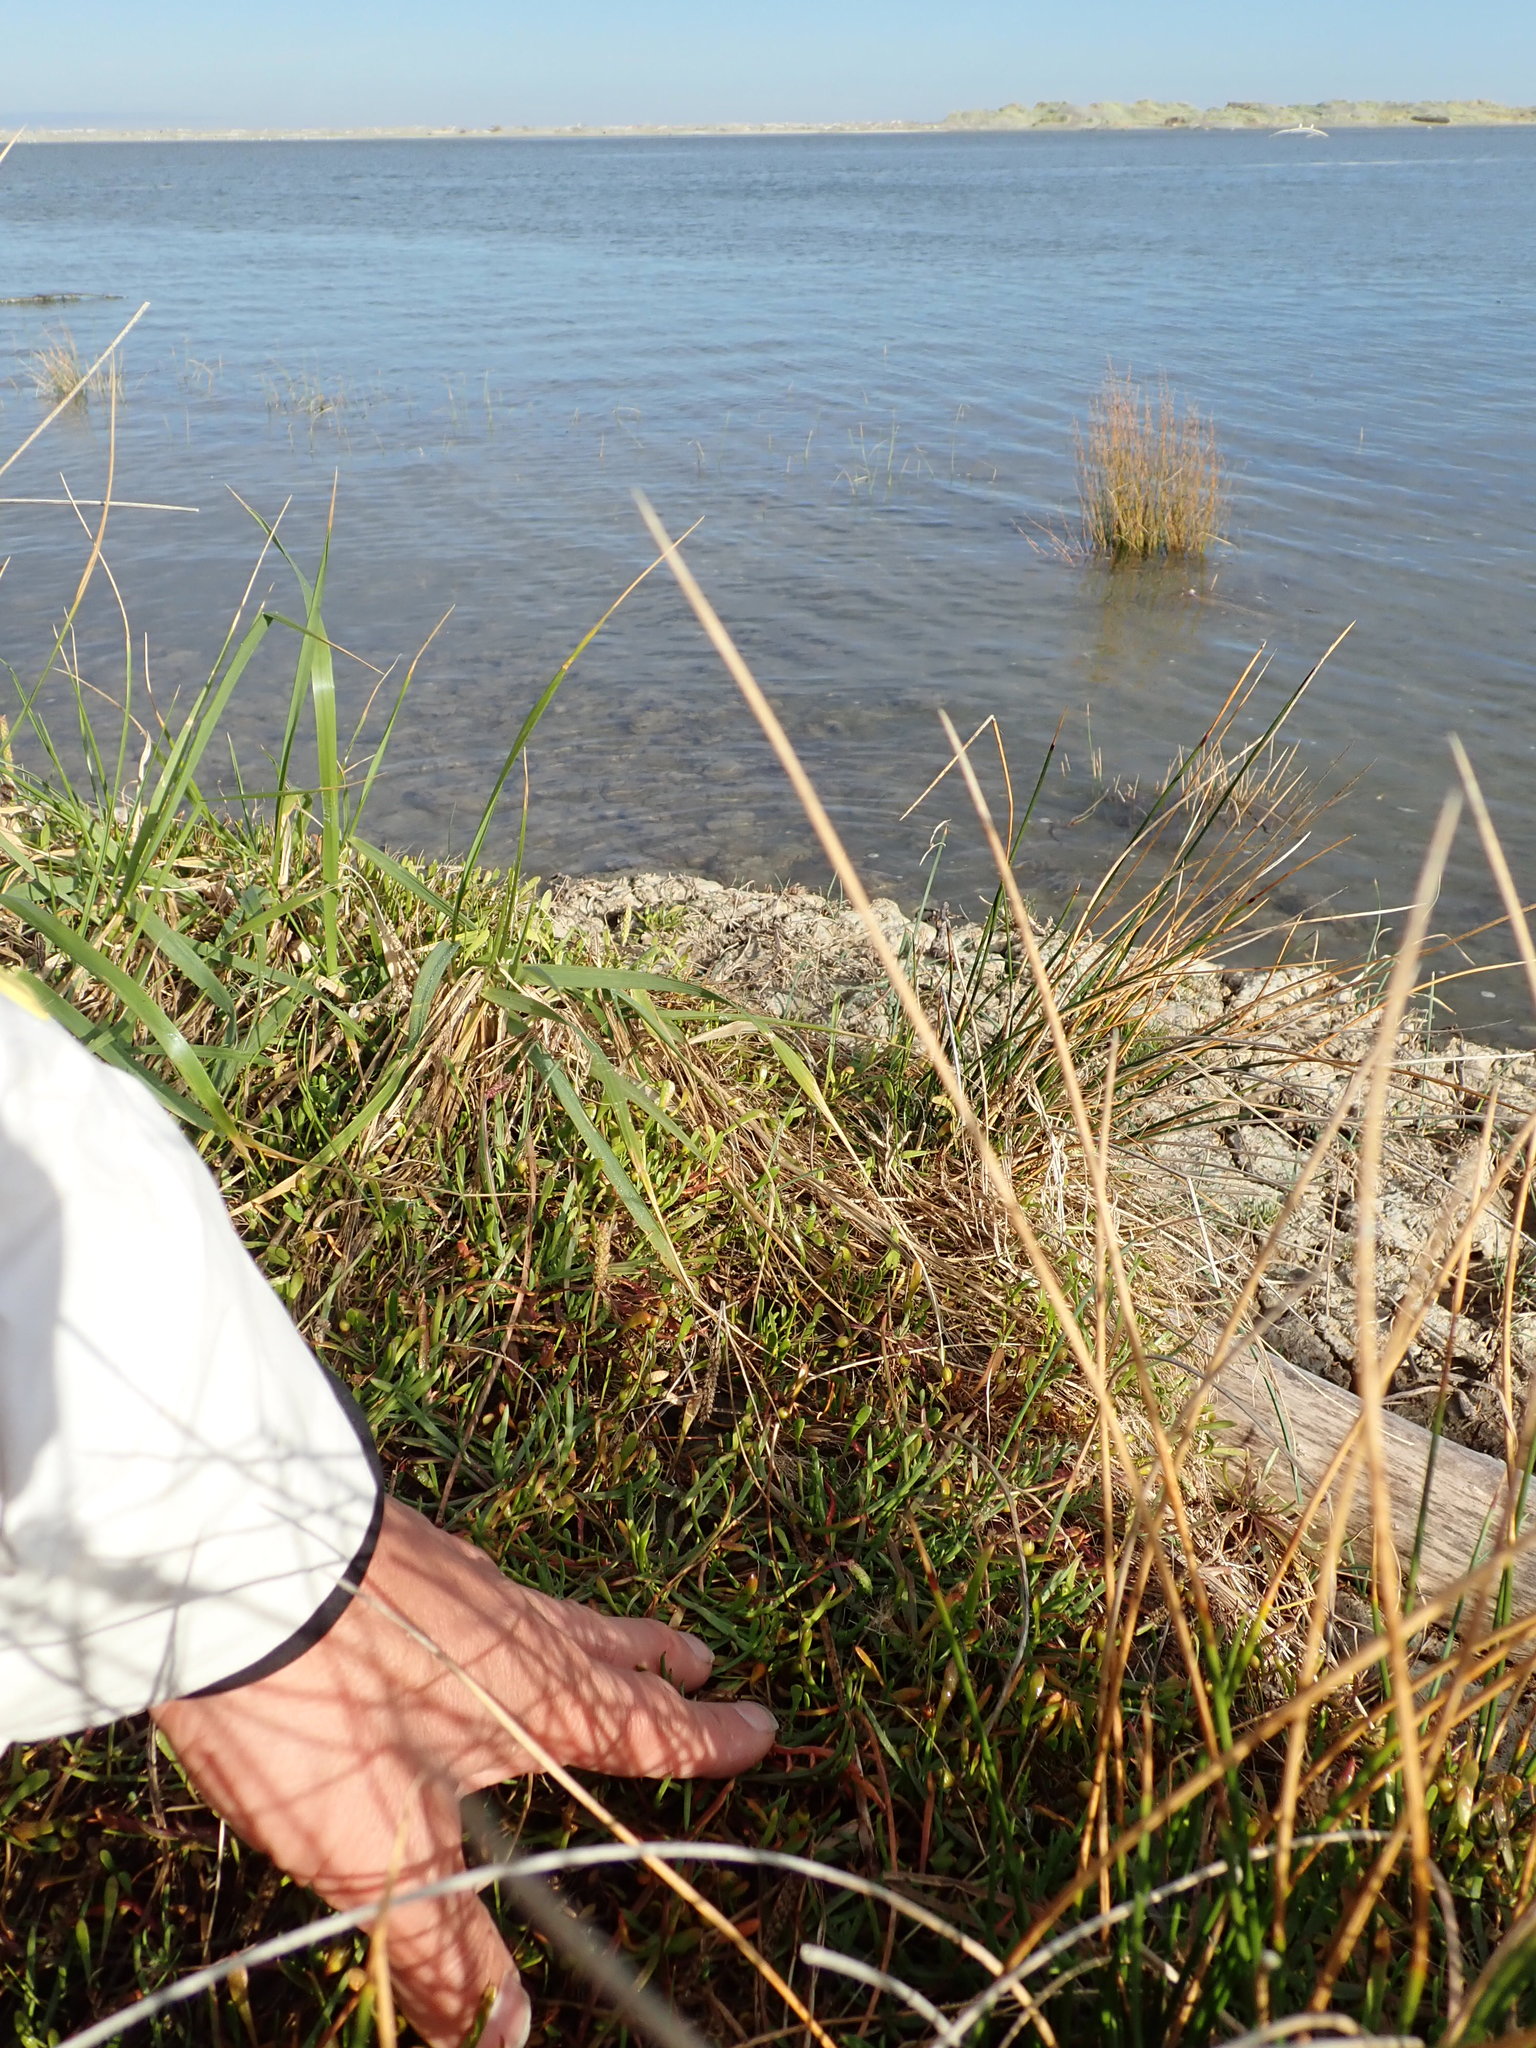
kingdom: Plantae
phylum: Tracheophyta
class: Magnoliopsida
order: Lamiales
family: Plantaginaceae
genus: Plantago
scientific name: Plantago coronopus
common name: Buck's-horn plantain
